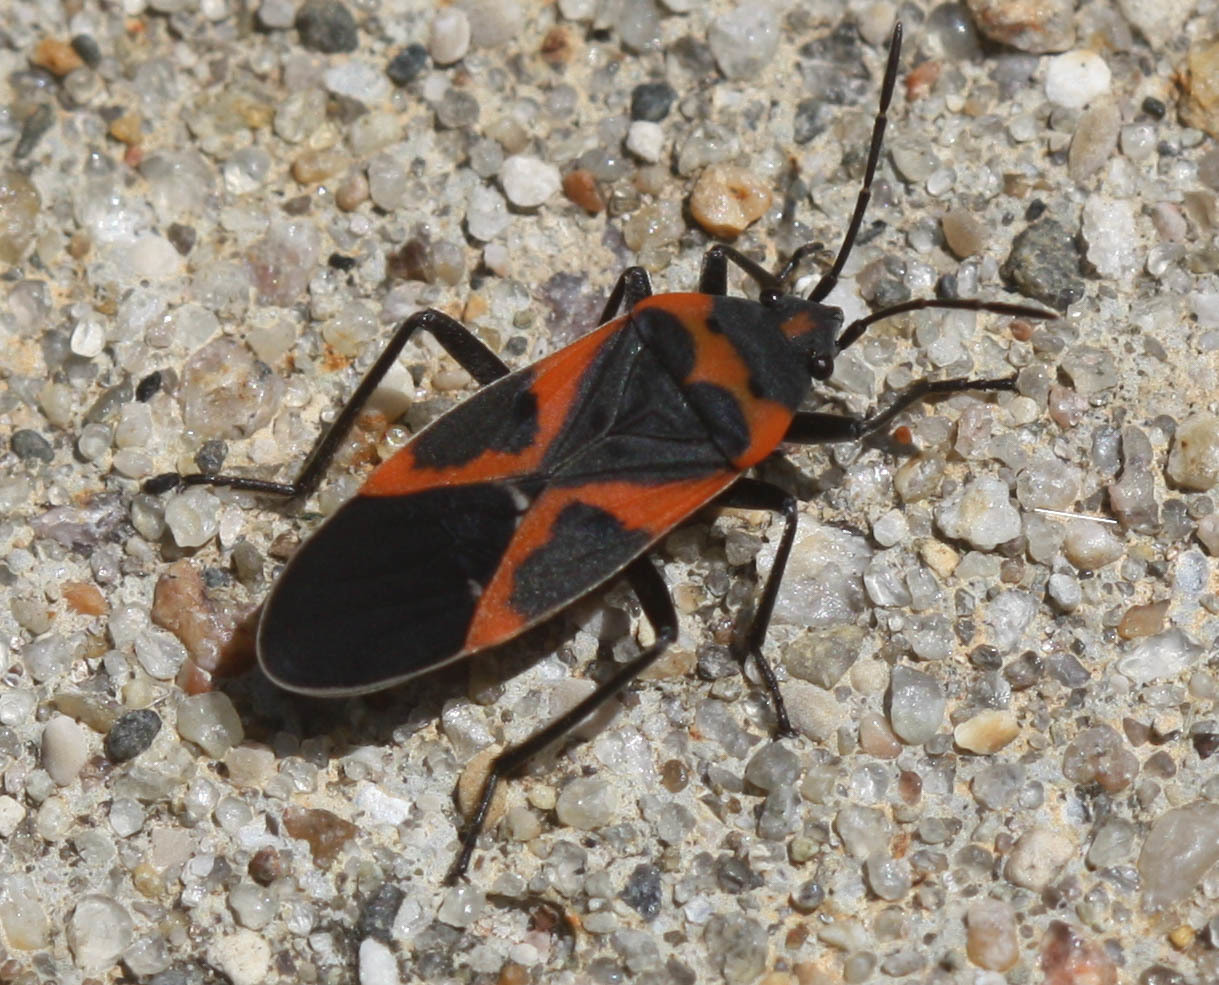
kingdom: Animalia
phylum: Arthropoda
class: Insecta
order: Hemiptera
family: Lygaeidae
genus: Lygaeus
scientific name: Lygaeus kalmii
